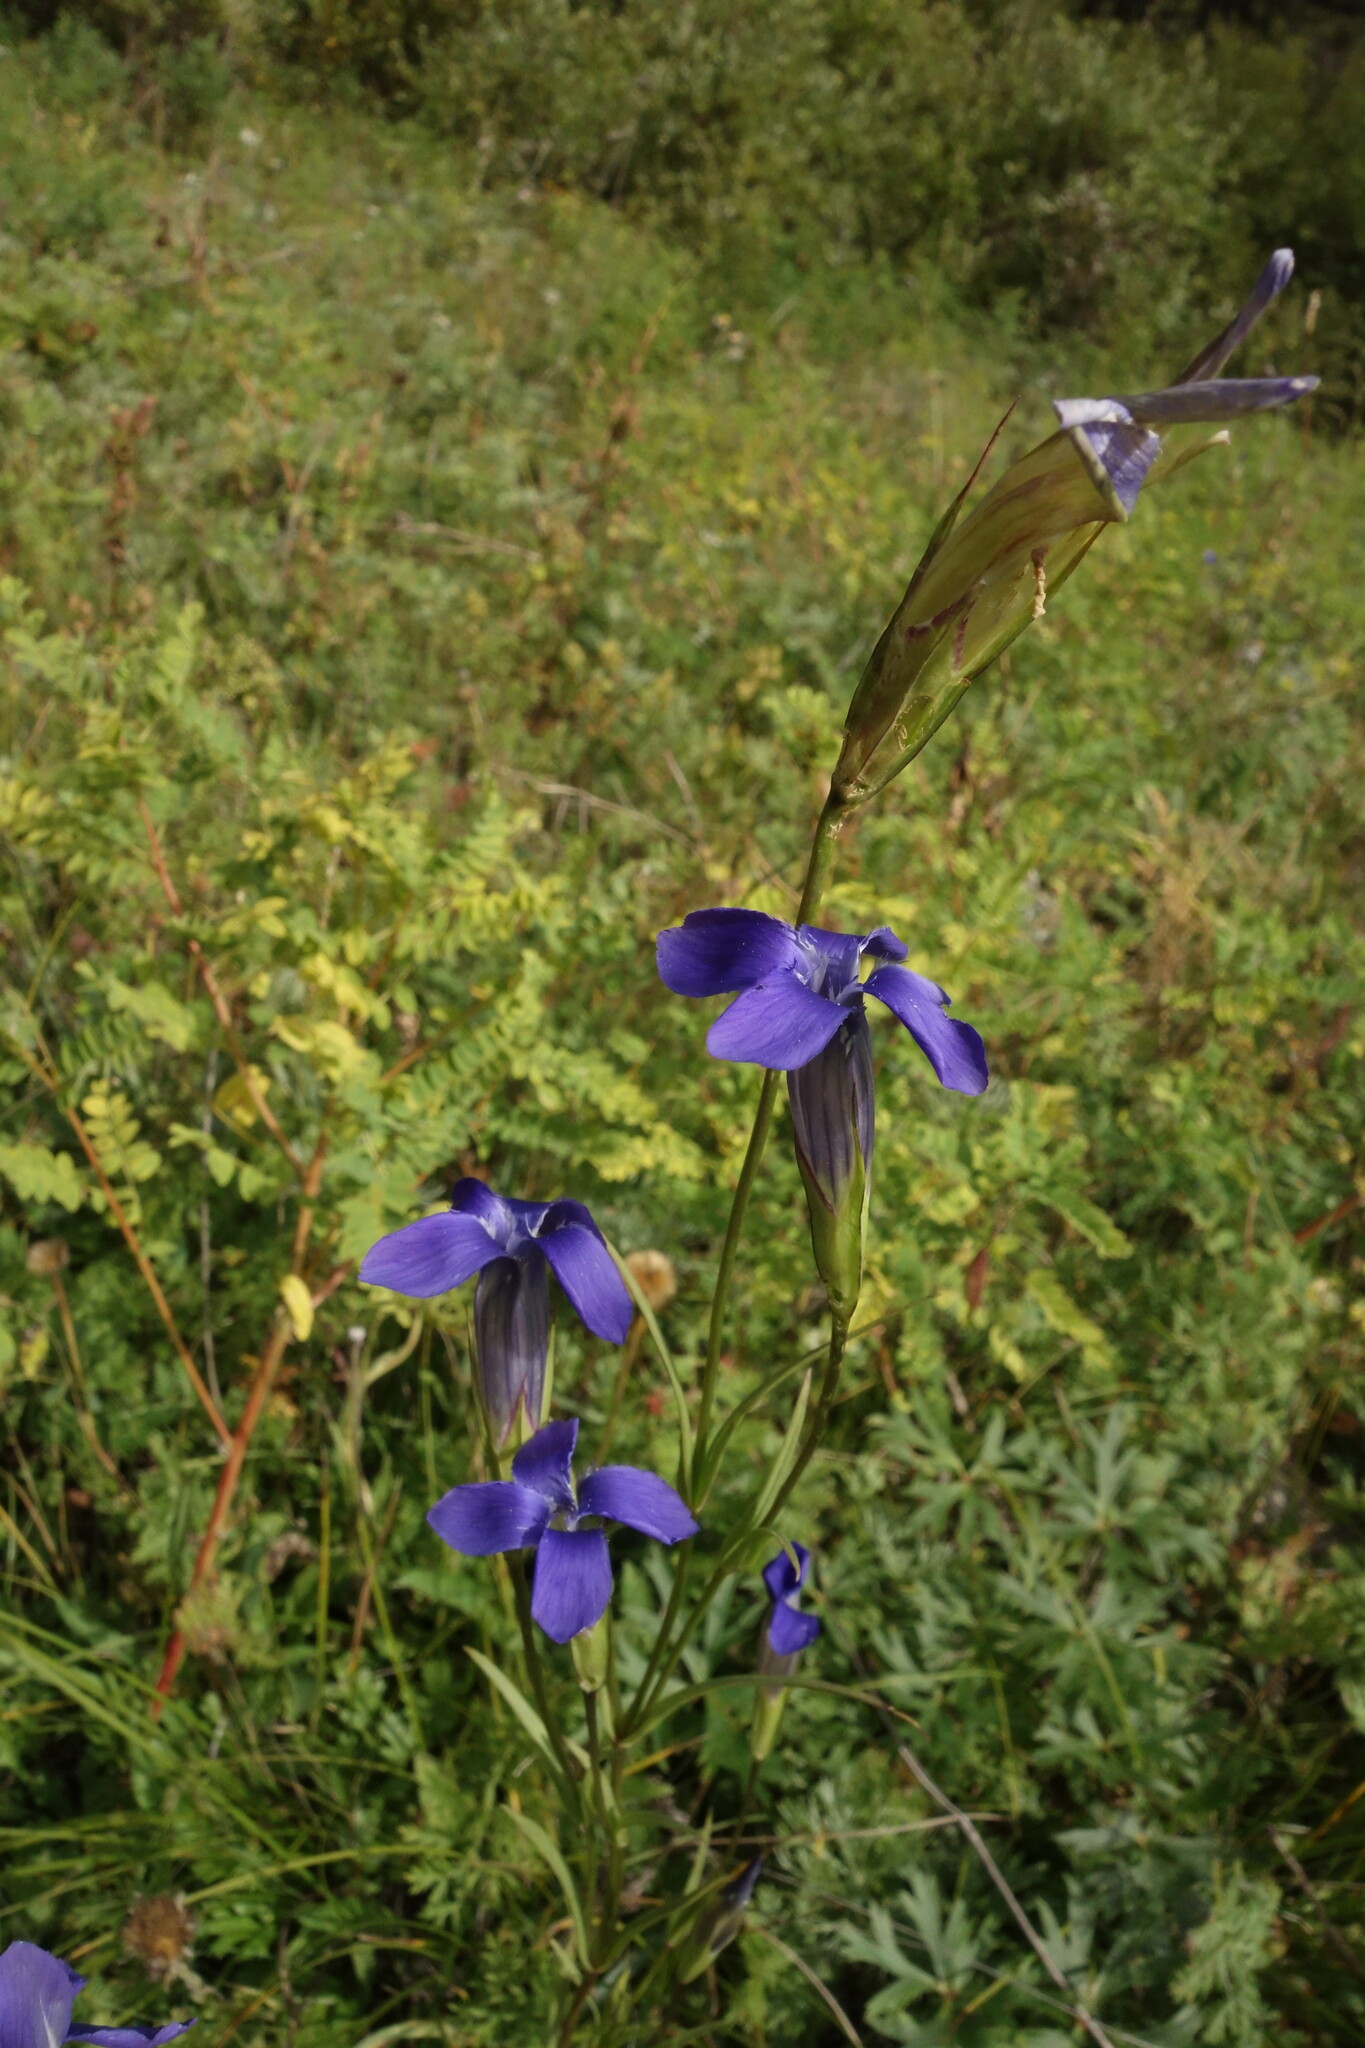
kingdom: Plantae
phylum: Tracheophyta
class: Magnoliopsida
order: Gentianales
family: Gentianaceae
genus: Gentianopsis
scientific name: Gentianopsis barbata
